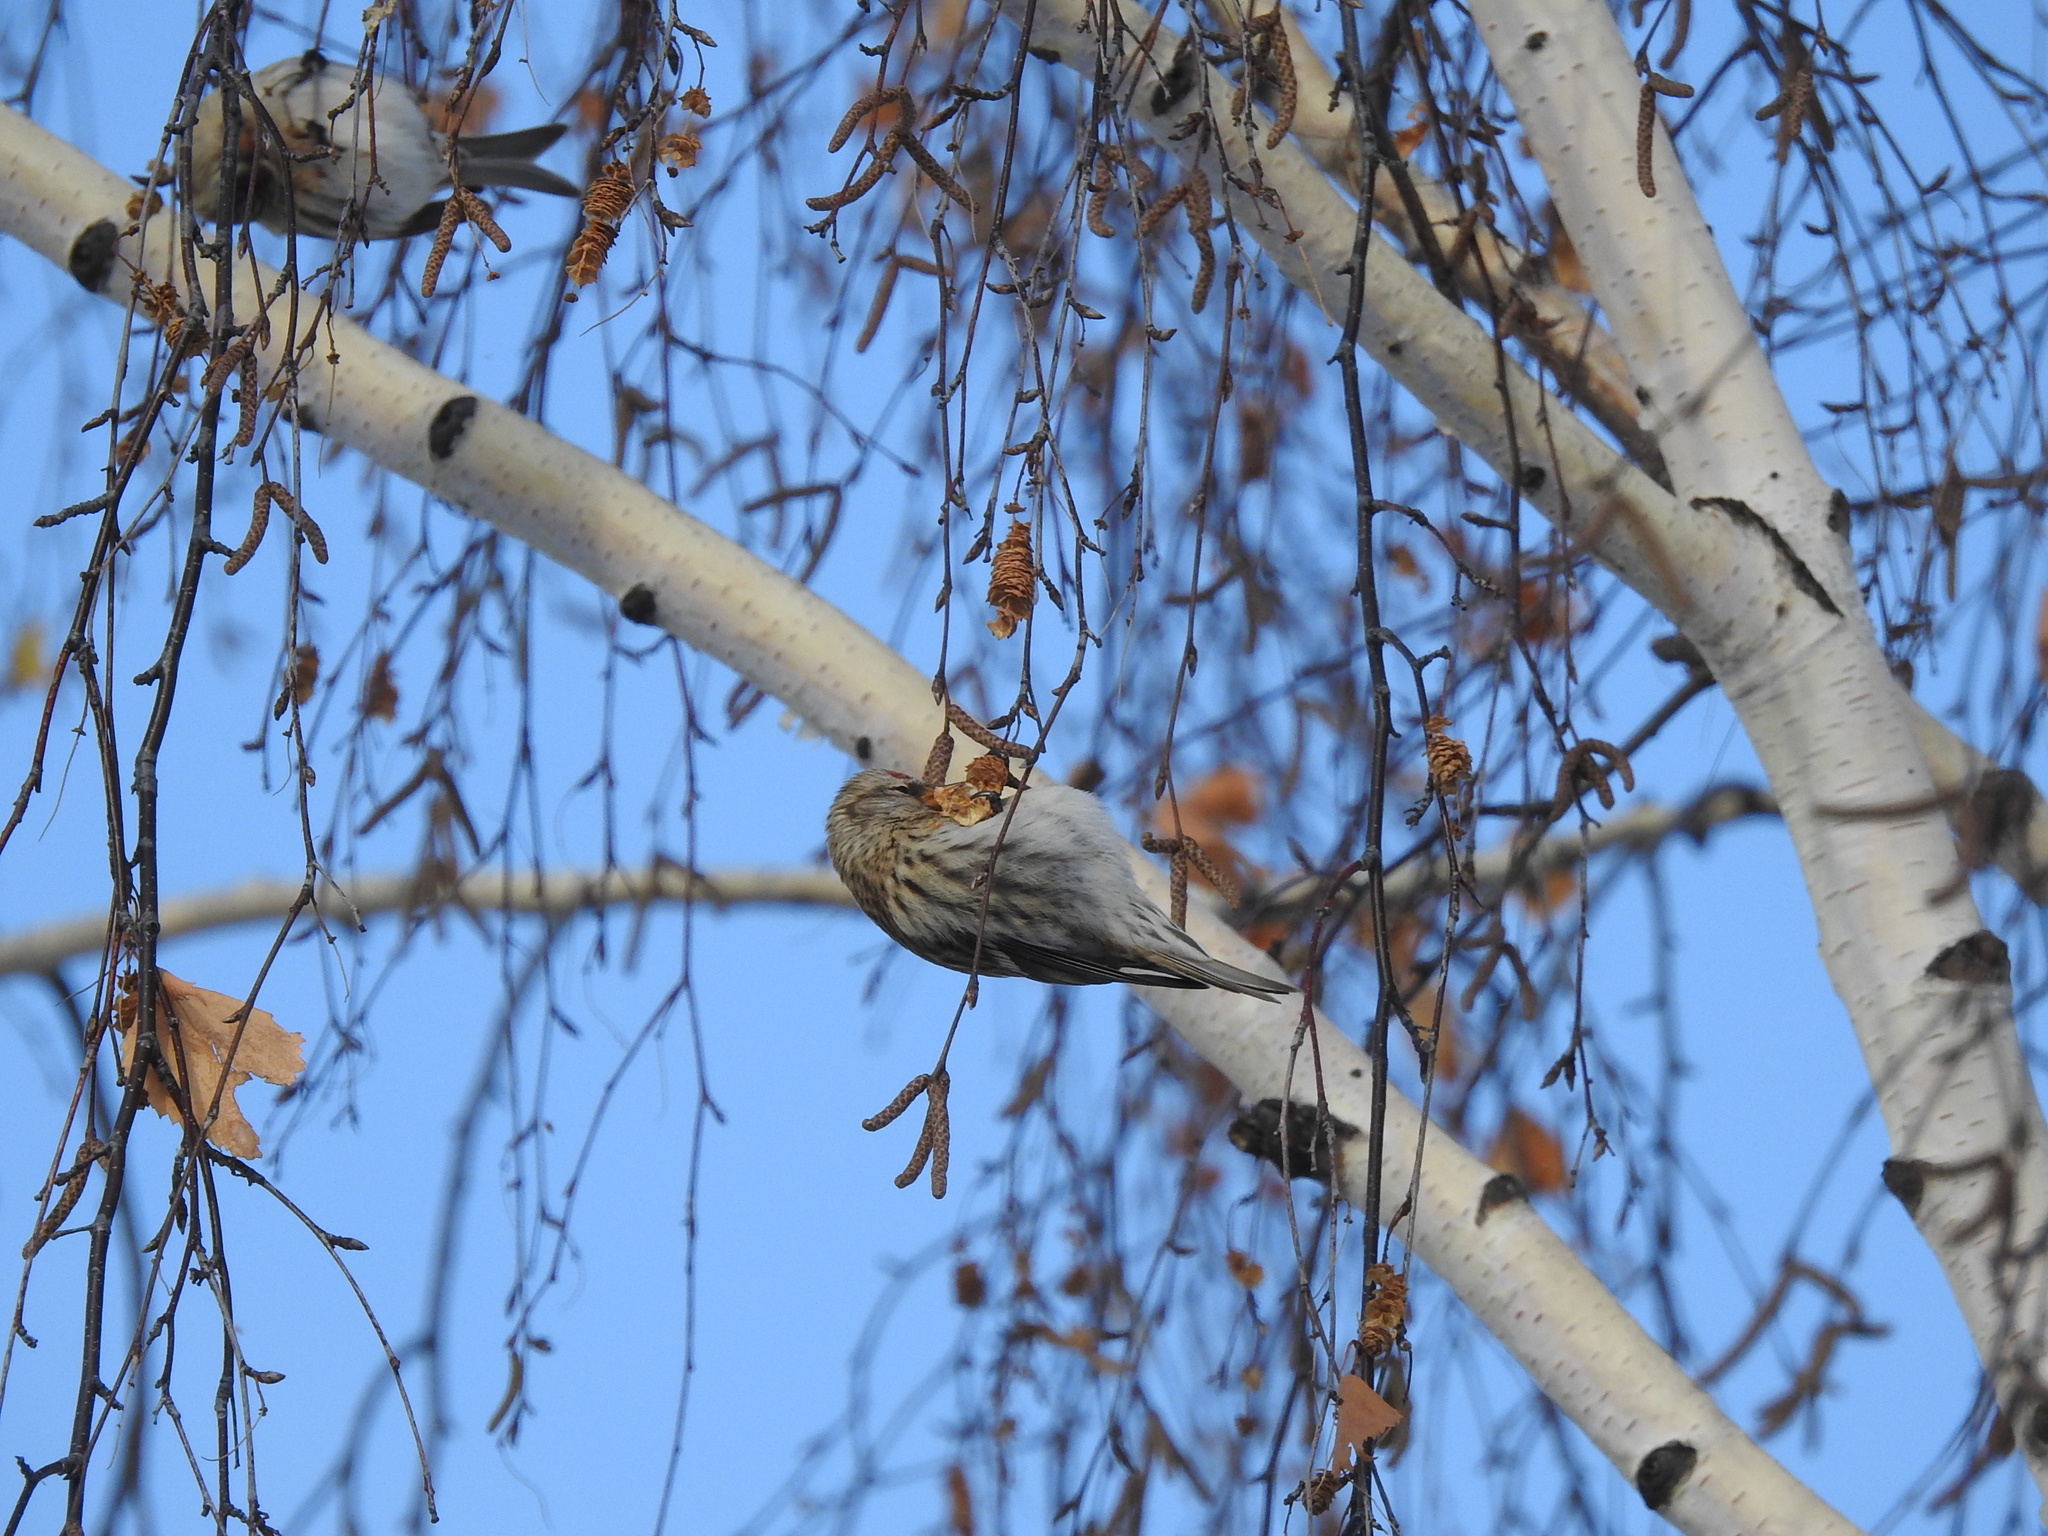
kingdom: Animalia
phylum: Chordata
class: Aves
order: Passeriformes
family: Fringillidae
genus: Acanthis
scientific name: Acanthis flammea
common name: Common redpoll
